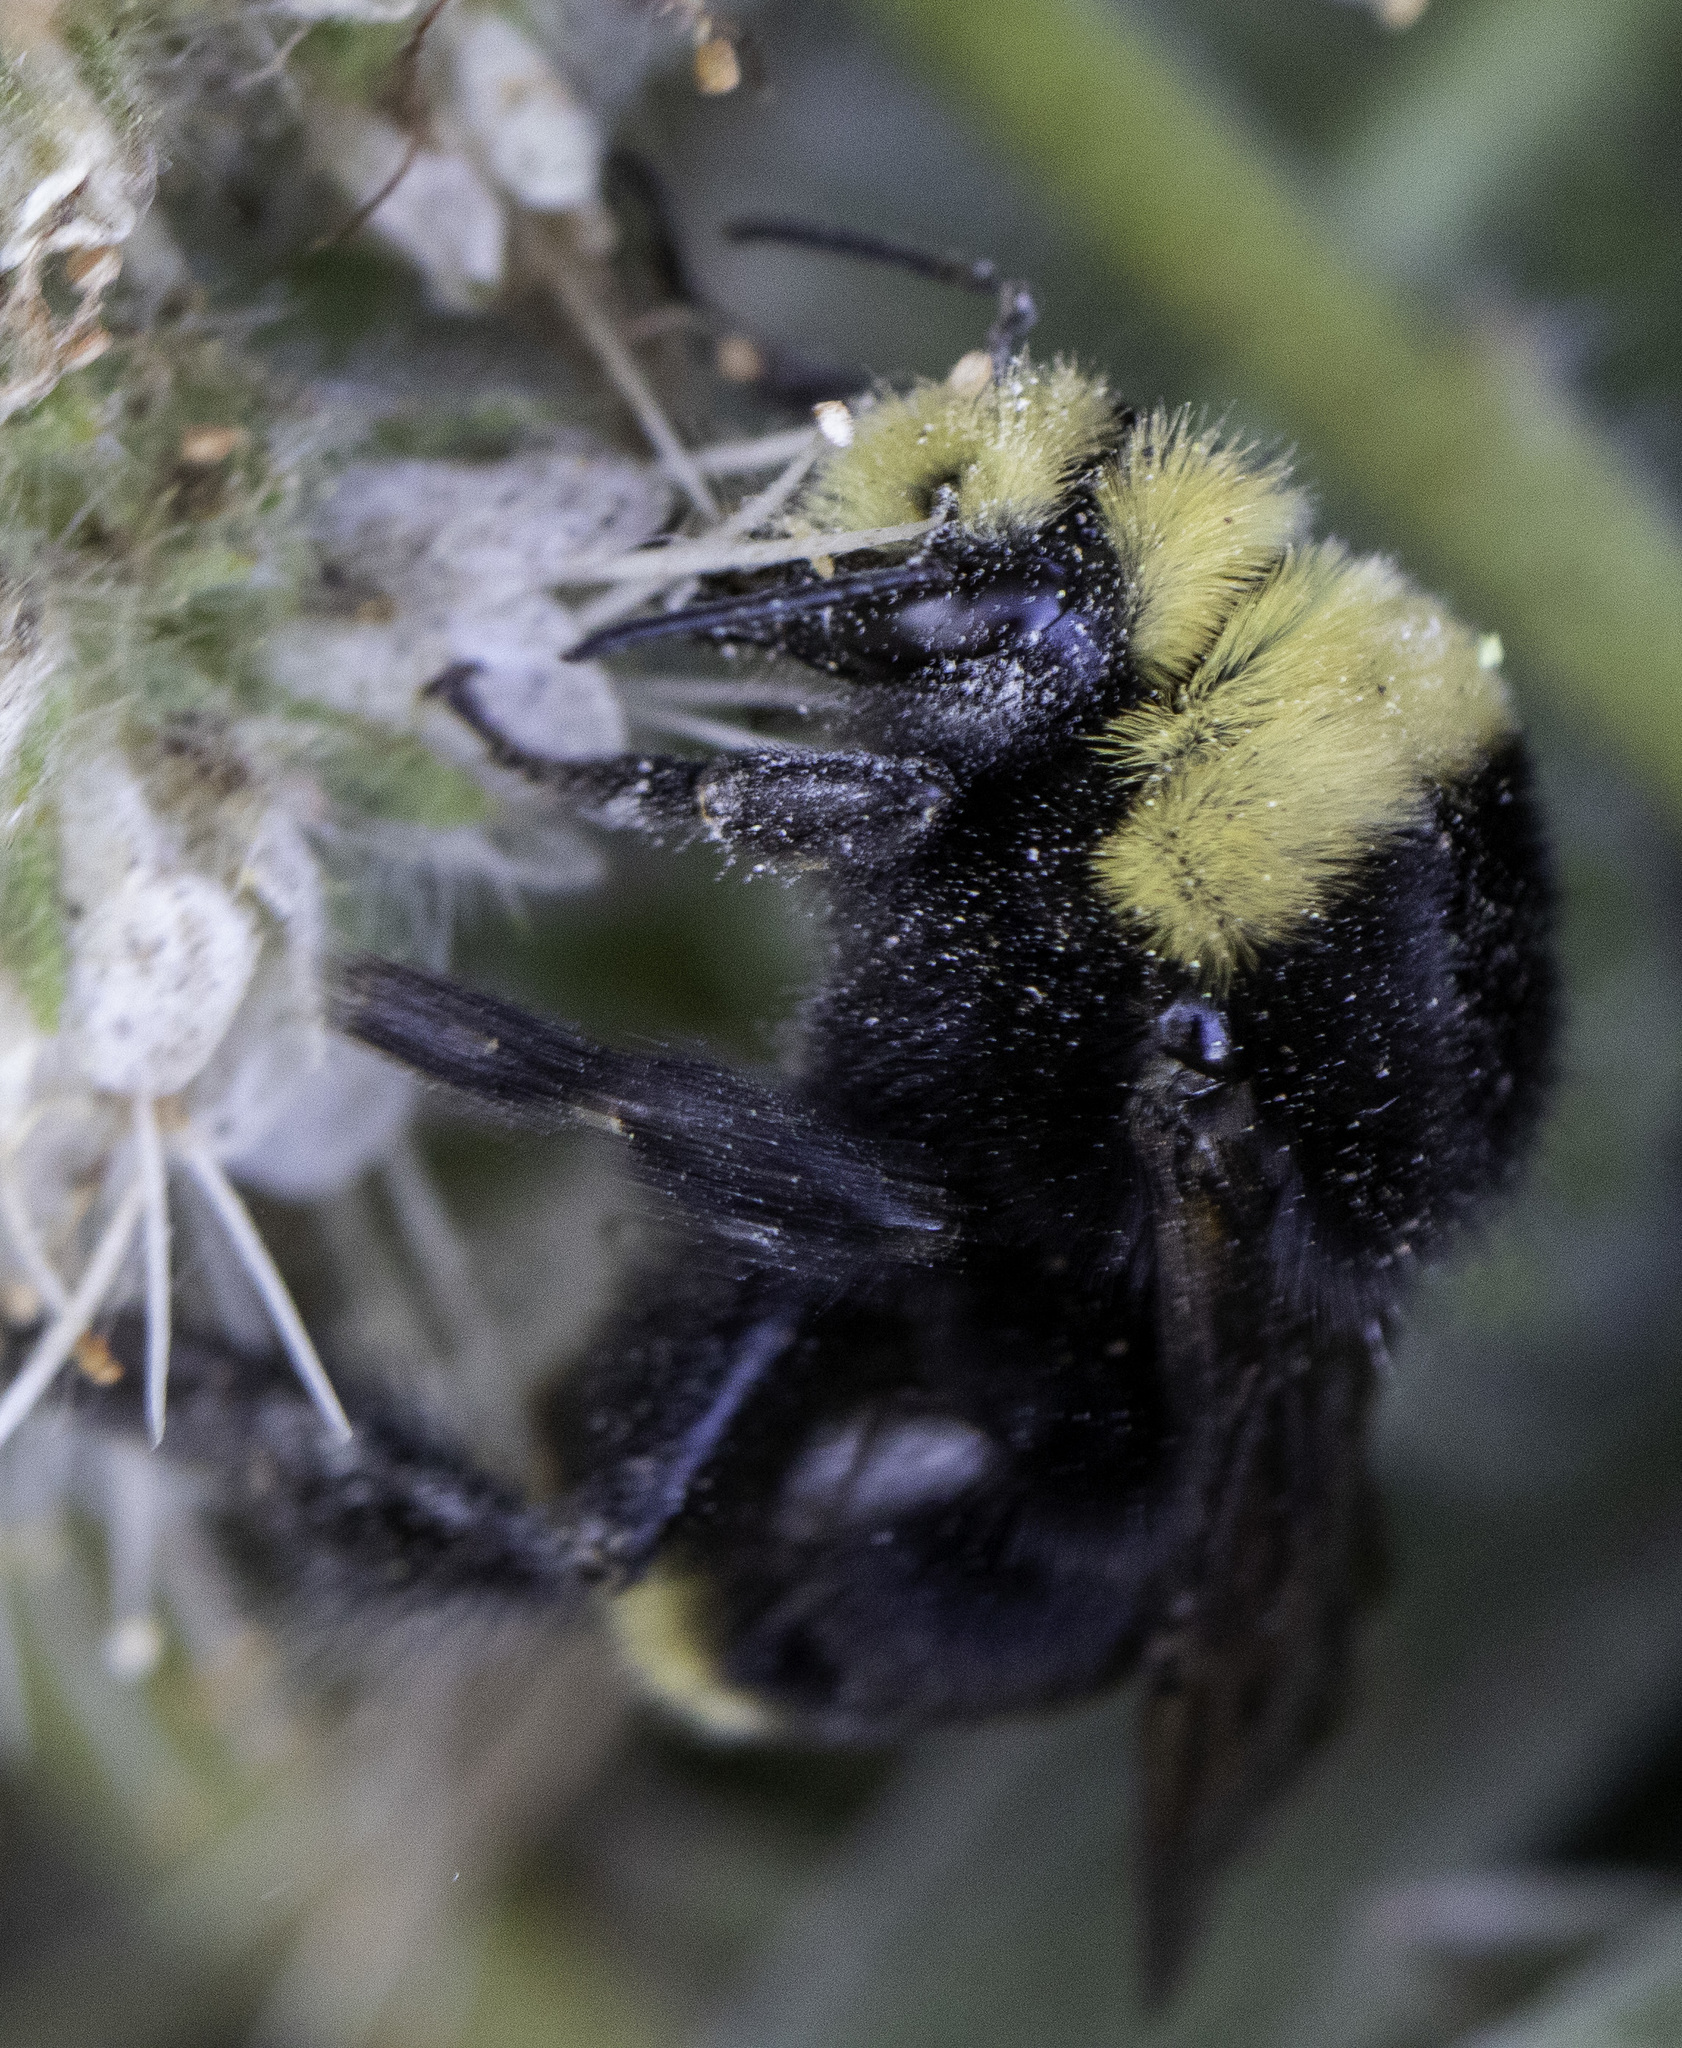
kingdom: Animalia
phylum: Arthropoda
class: Insecta
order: Hymenoptera
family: Apidae
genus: Bombus
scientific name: Bombus vosnesenskii
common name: Vosnesensky bumble bee
